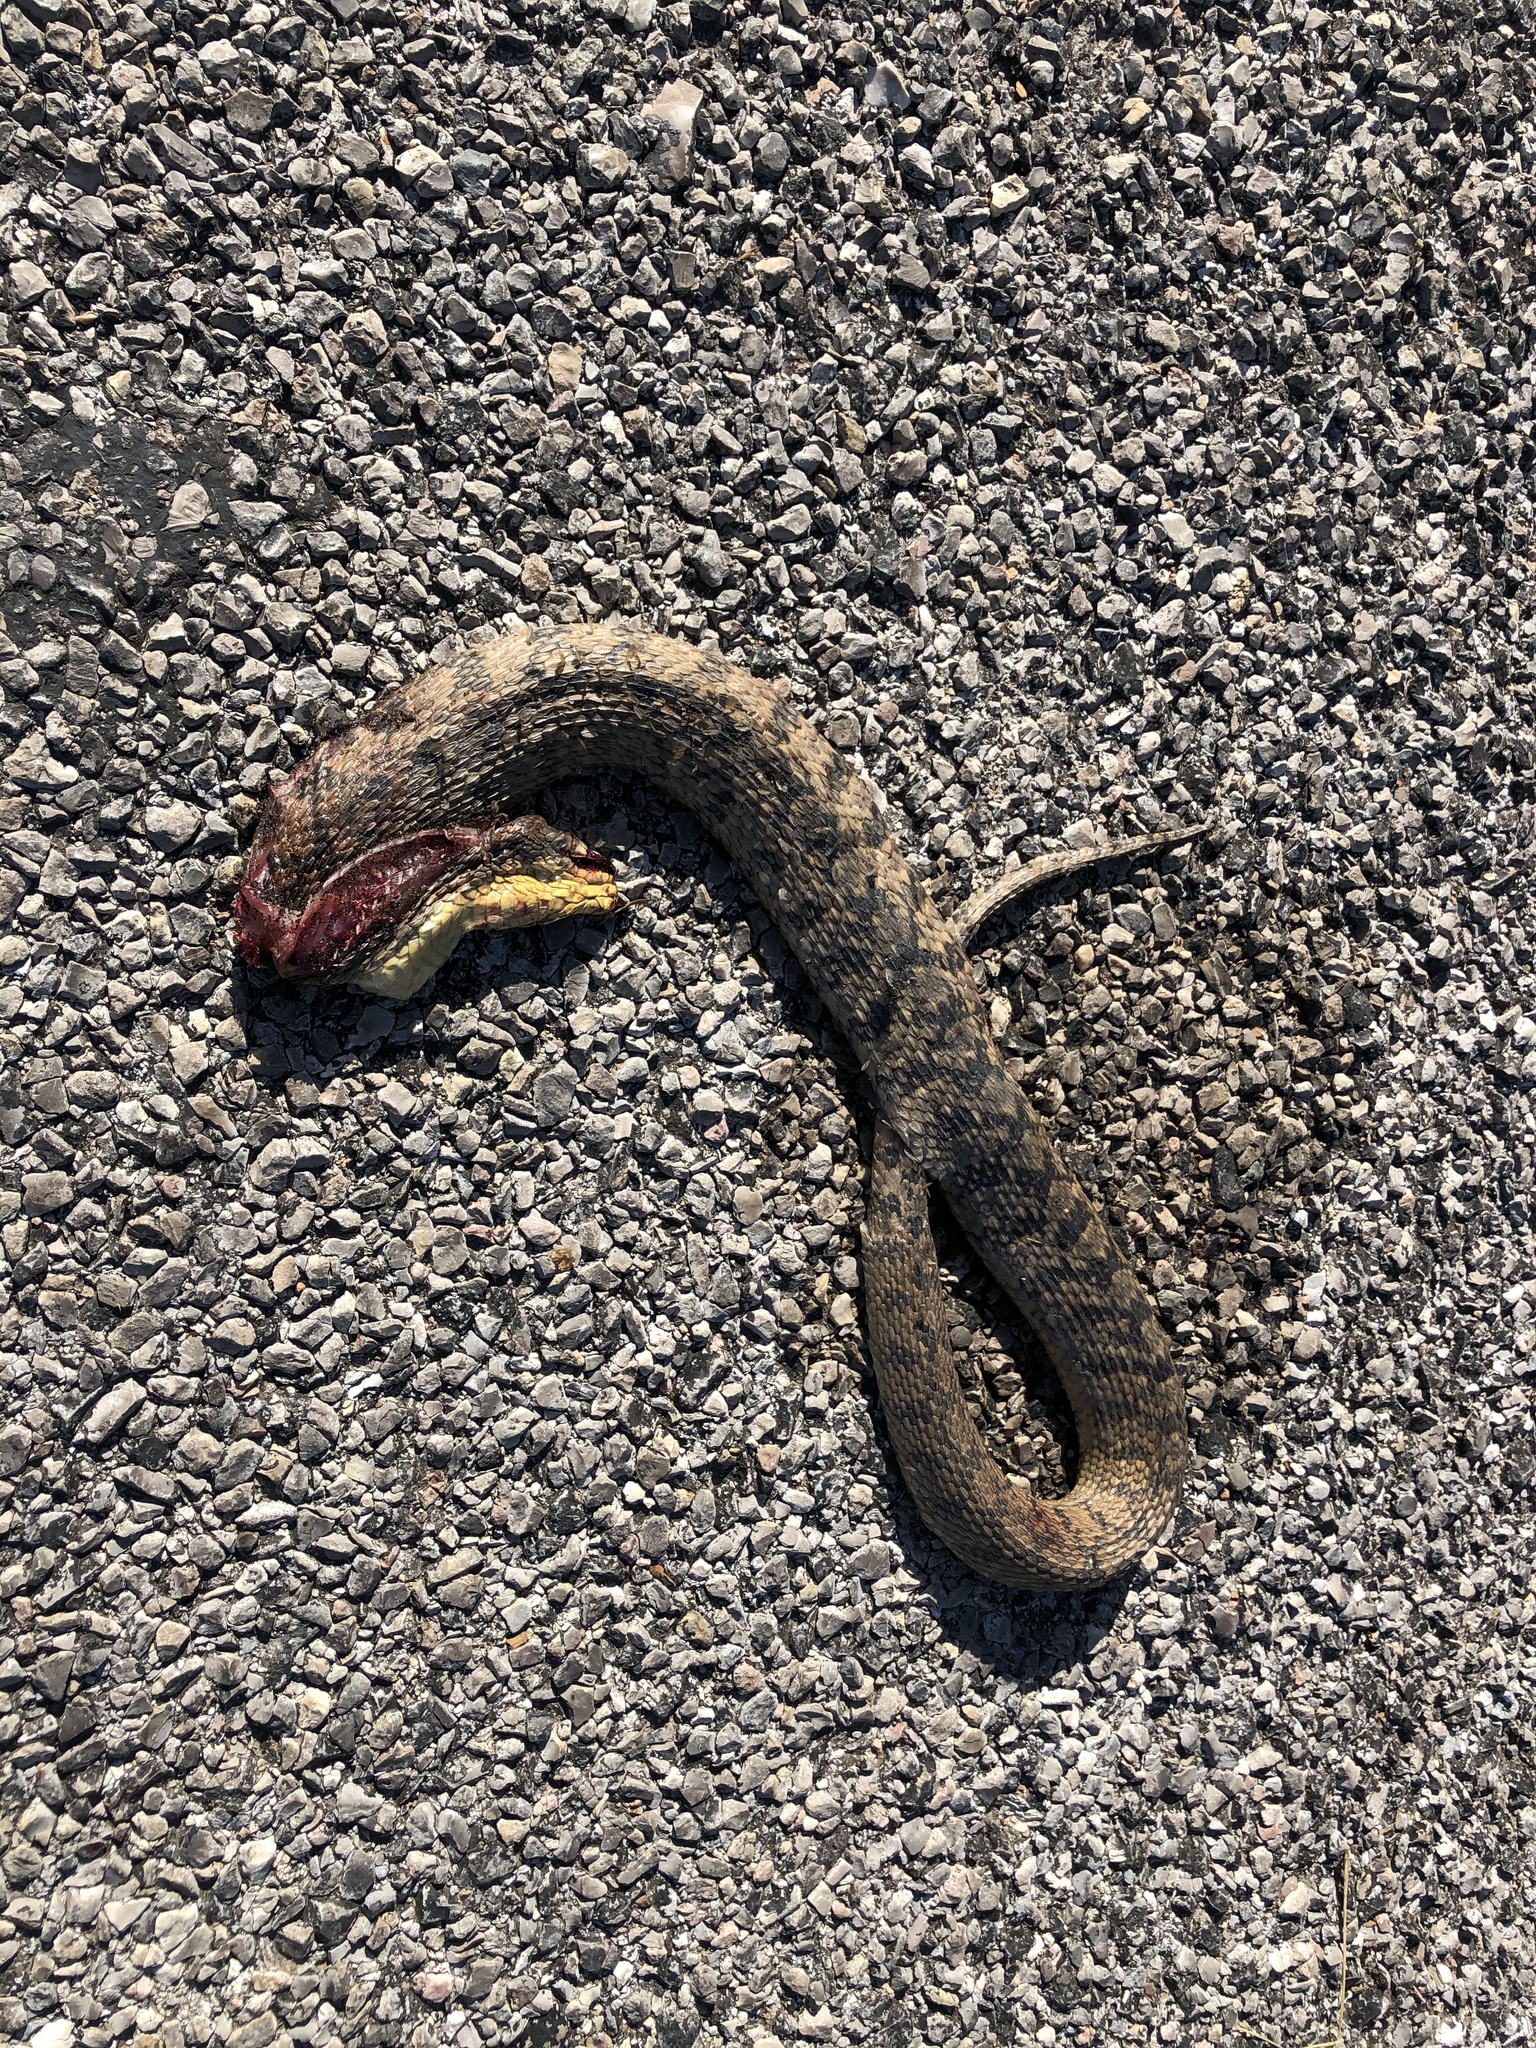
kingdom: Animalia
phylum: Chordata
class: Squamata
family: Colubridae
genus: Nerodia
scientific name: Nerodia rhombifer
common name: Diamondback water snake
